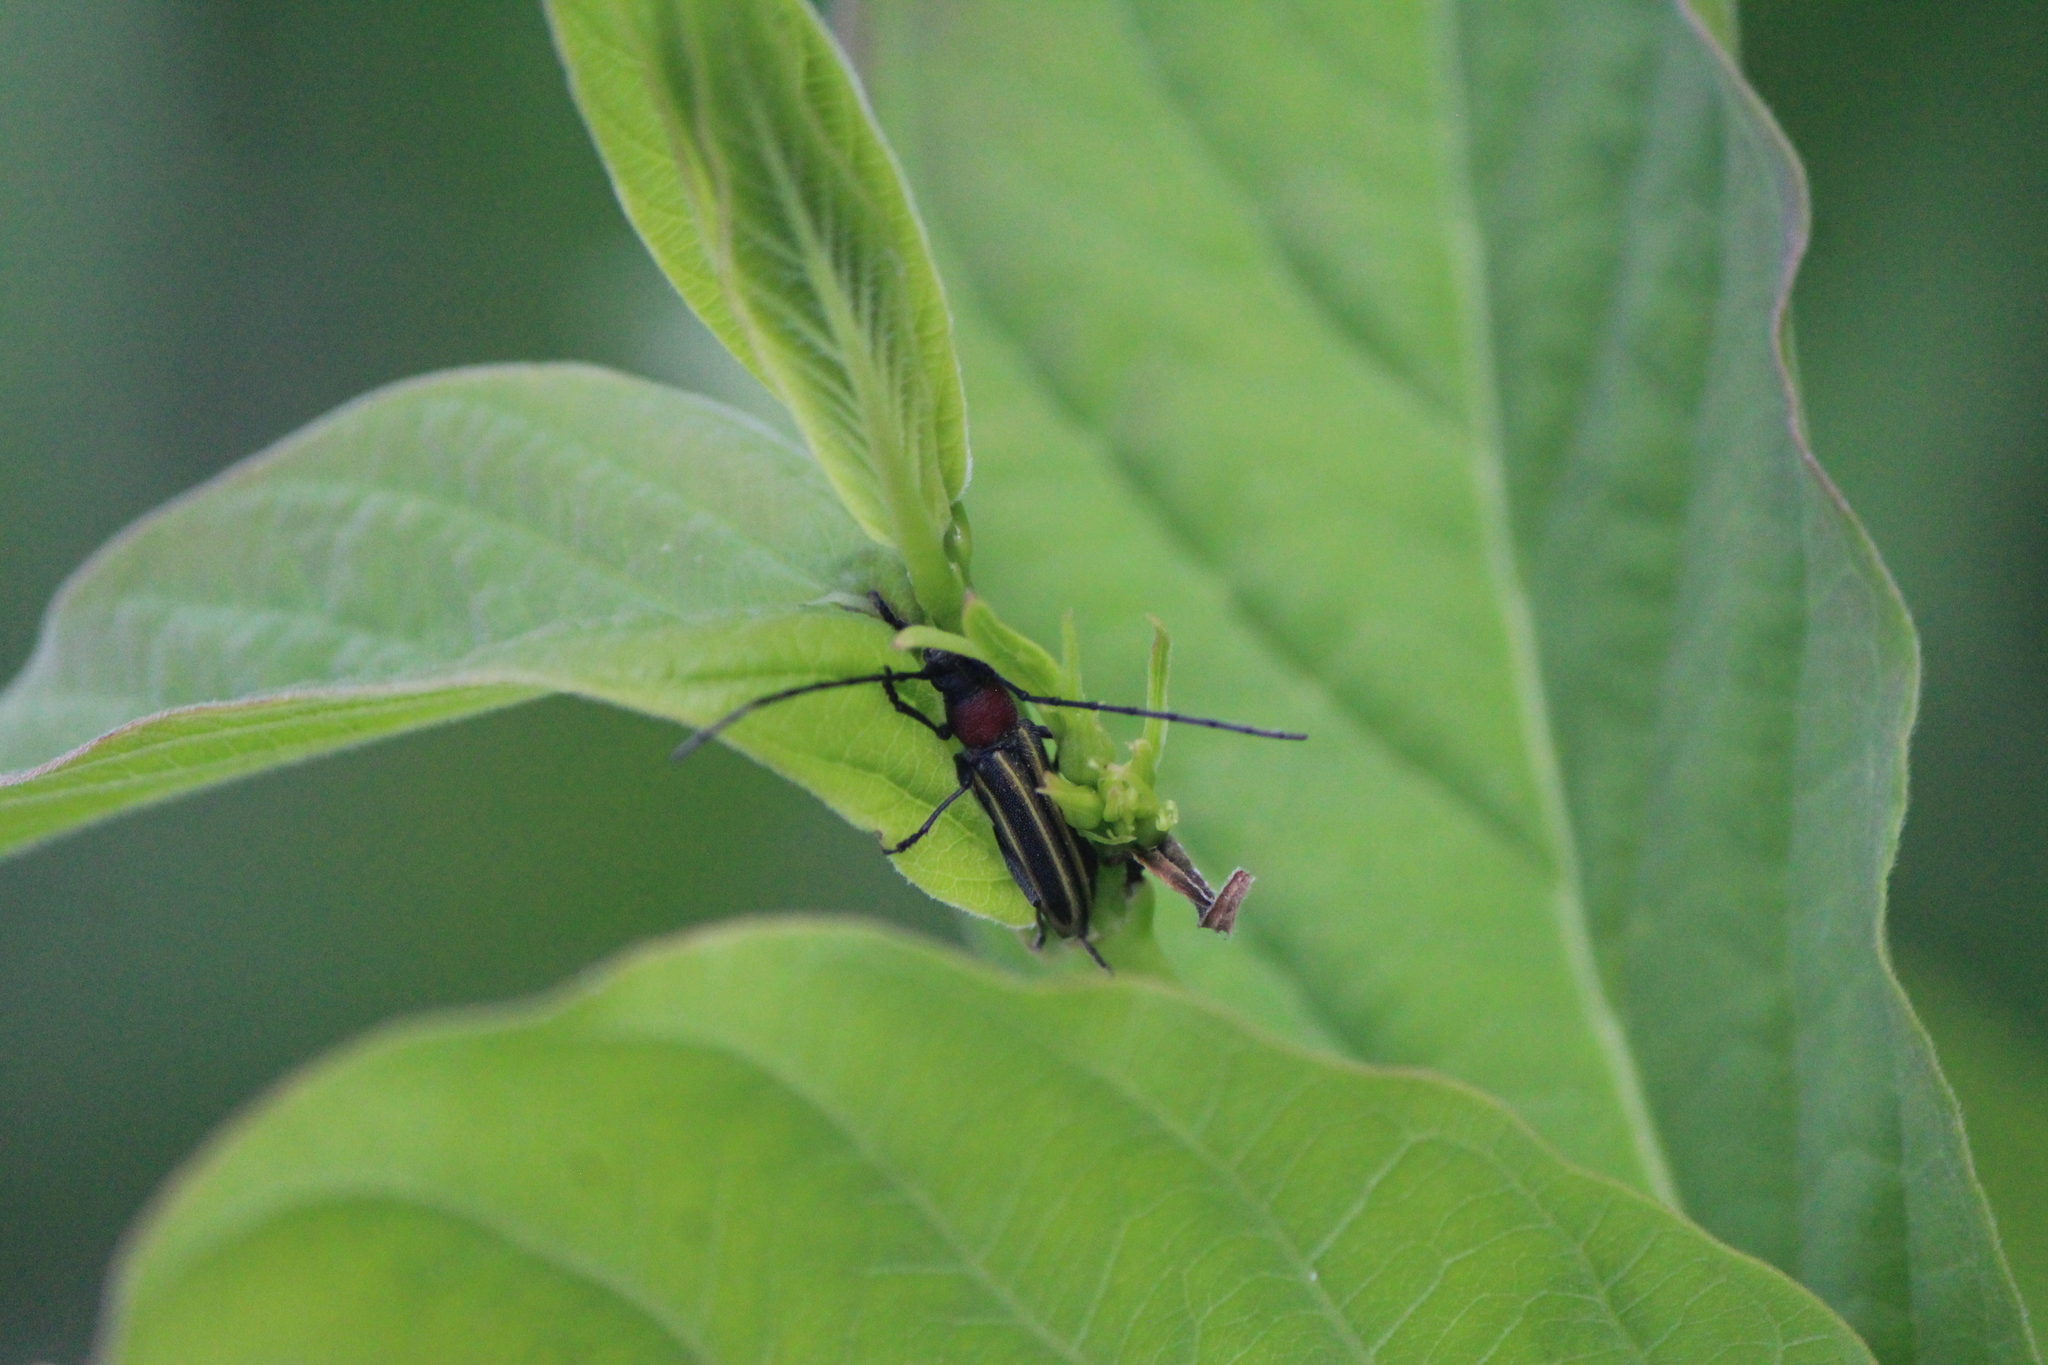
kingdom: Animalia
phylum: Arthropoda
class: Insecta
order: Coleoptera
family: Cerambycidae
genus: Mannophorus
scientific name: Mannophorus laetus
